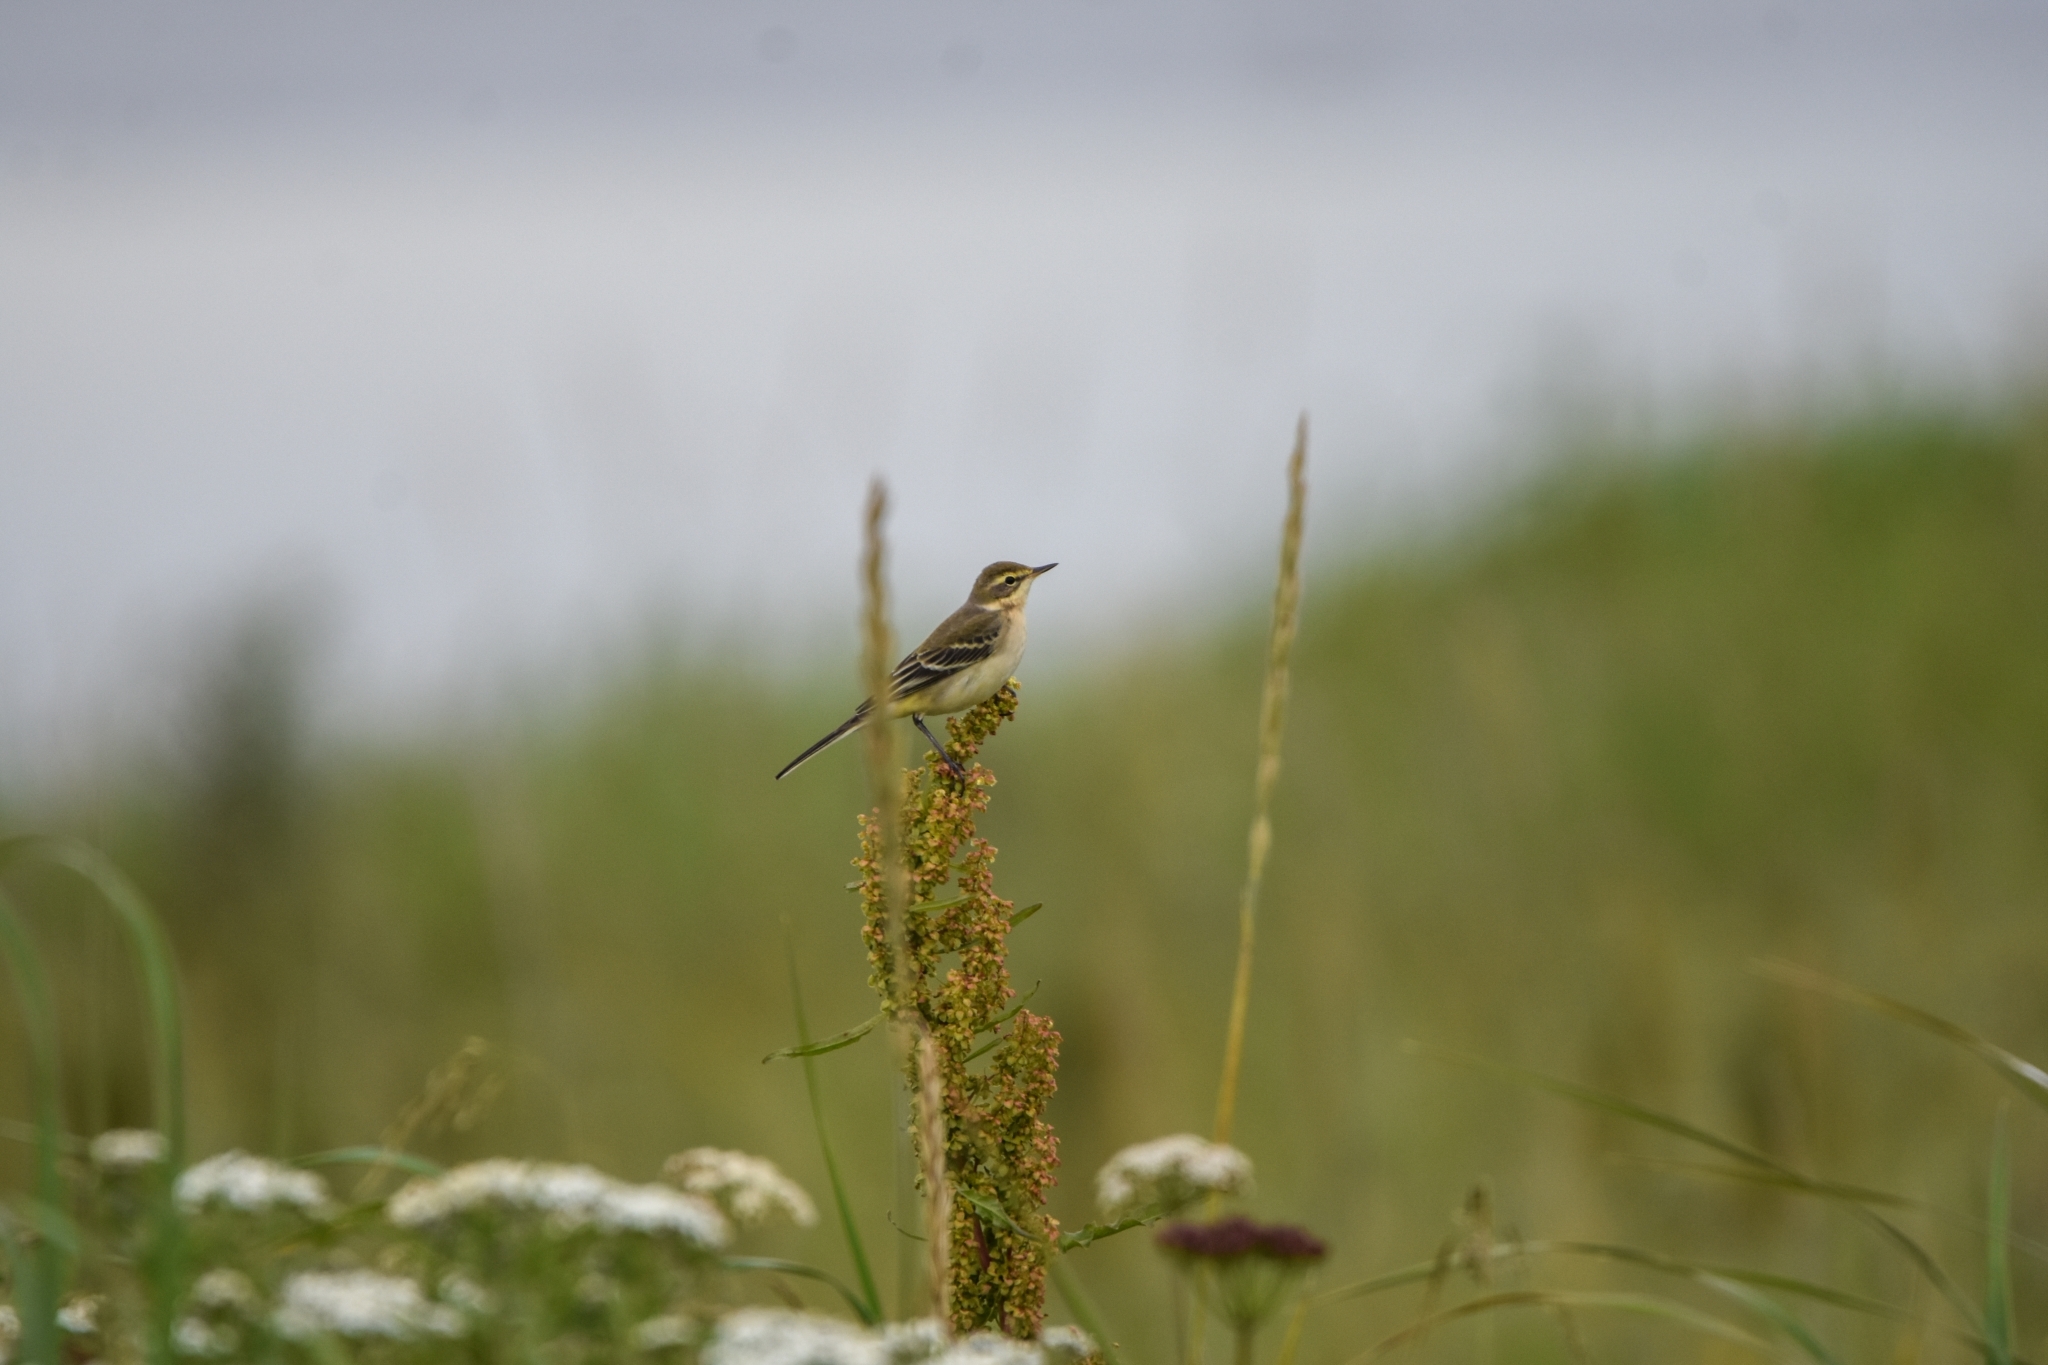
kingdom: Animalia
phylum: Chordata
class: Aves
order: Passeriformes
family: Motacillidae
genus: Motacilla
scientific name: Motacilla tschutschensis
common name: Eastern yellow wagtail
